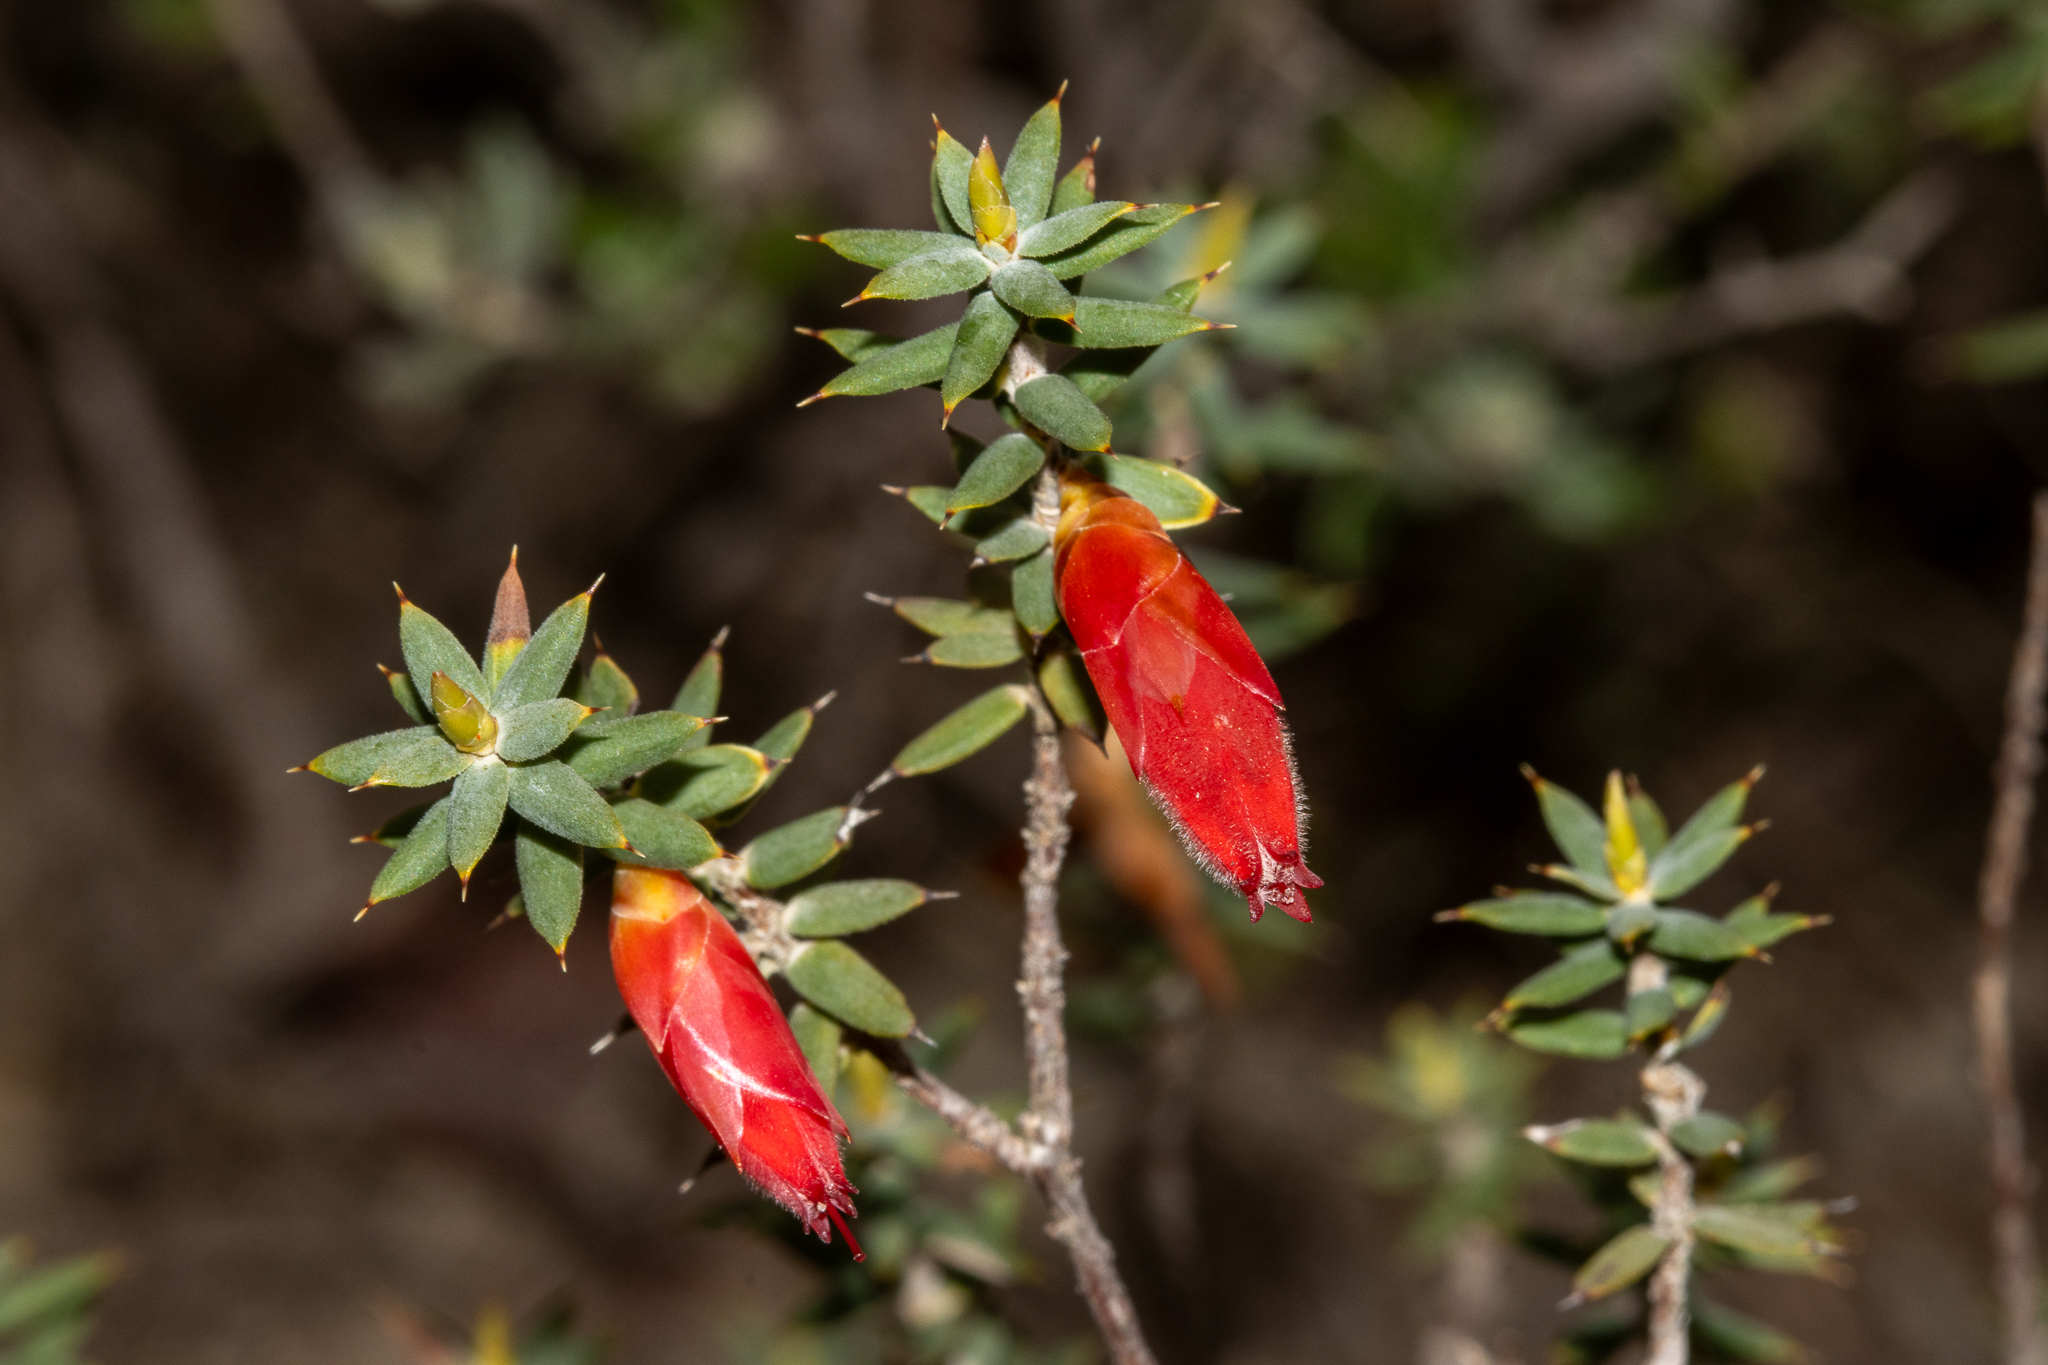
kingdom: Plantae
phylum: Tracheophyta
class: Magnoliopsida
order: Ericales
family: Ericaceae
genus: Stenanthera
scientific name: Stenanthera conostephioides
